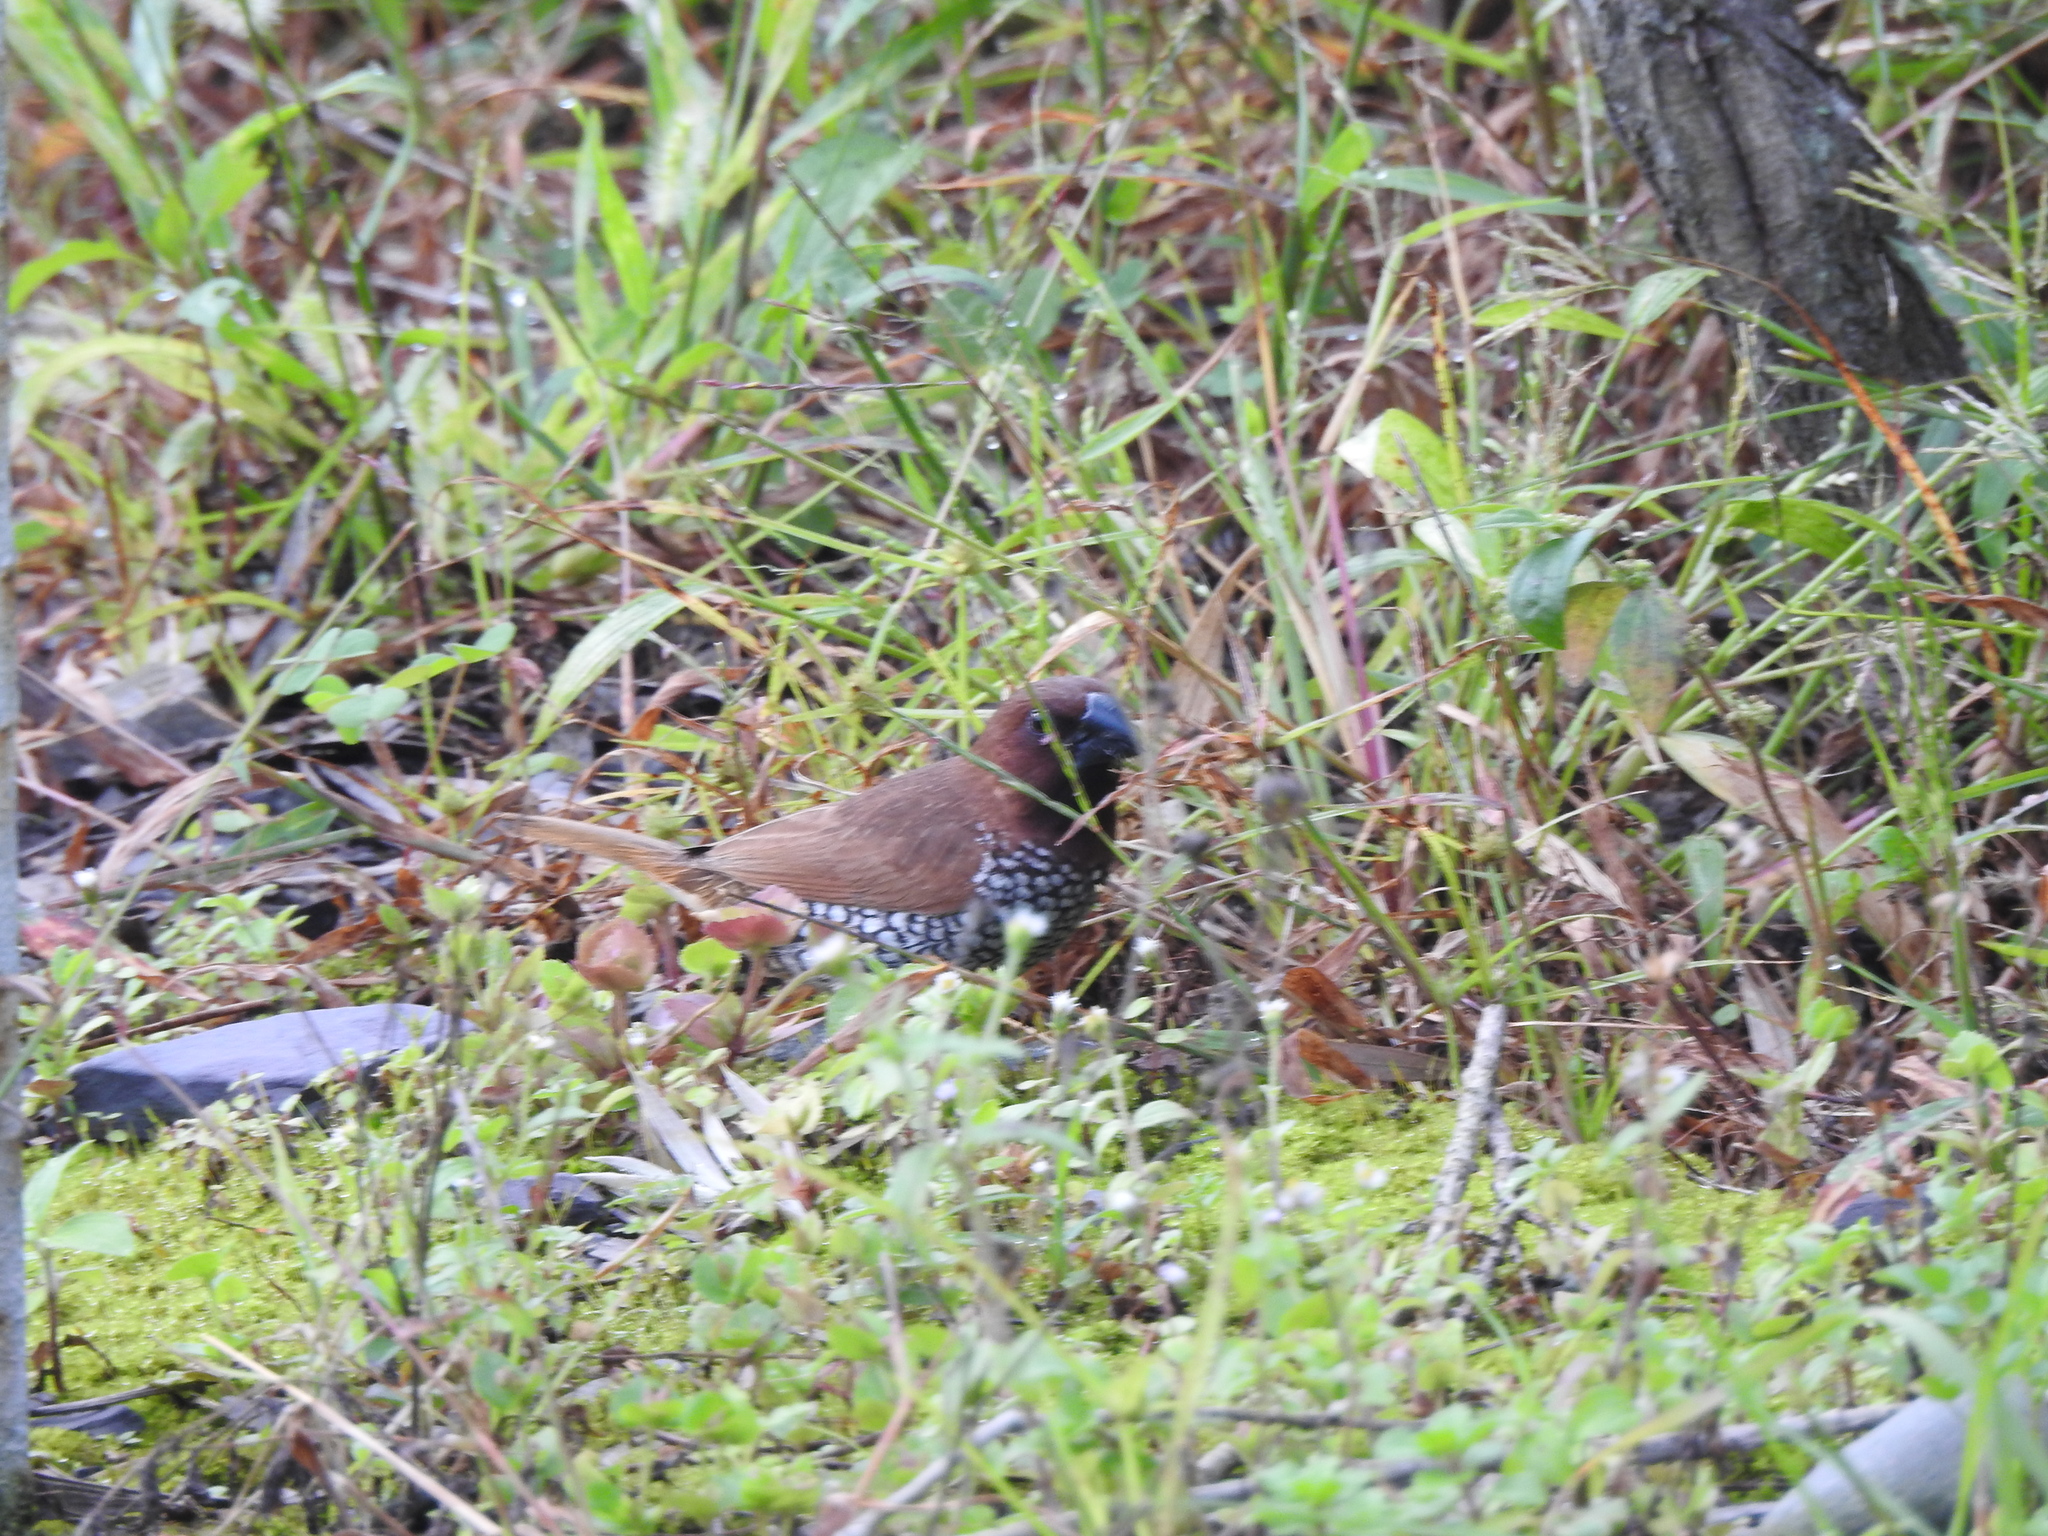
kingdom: Animalia
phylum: Chordata
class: Aves
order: Passeriformes
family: Estrildidae
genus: Lonchura
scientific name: Lonchura punctulata
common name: Scaly-breasted munia
